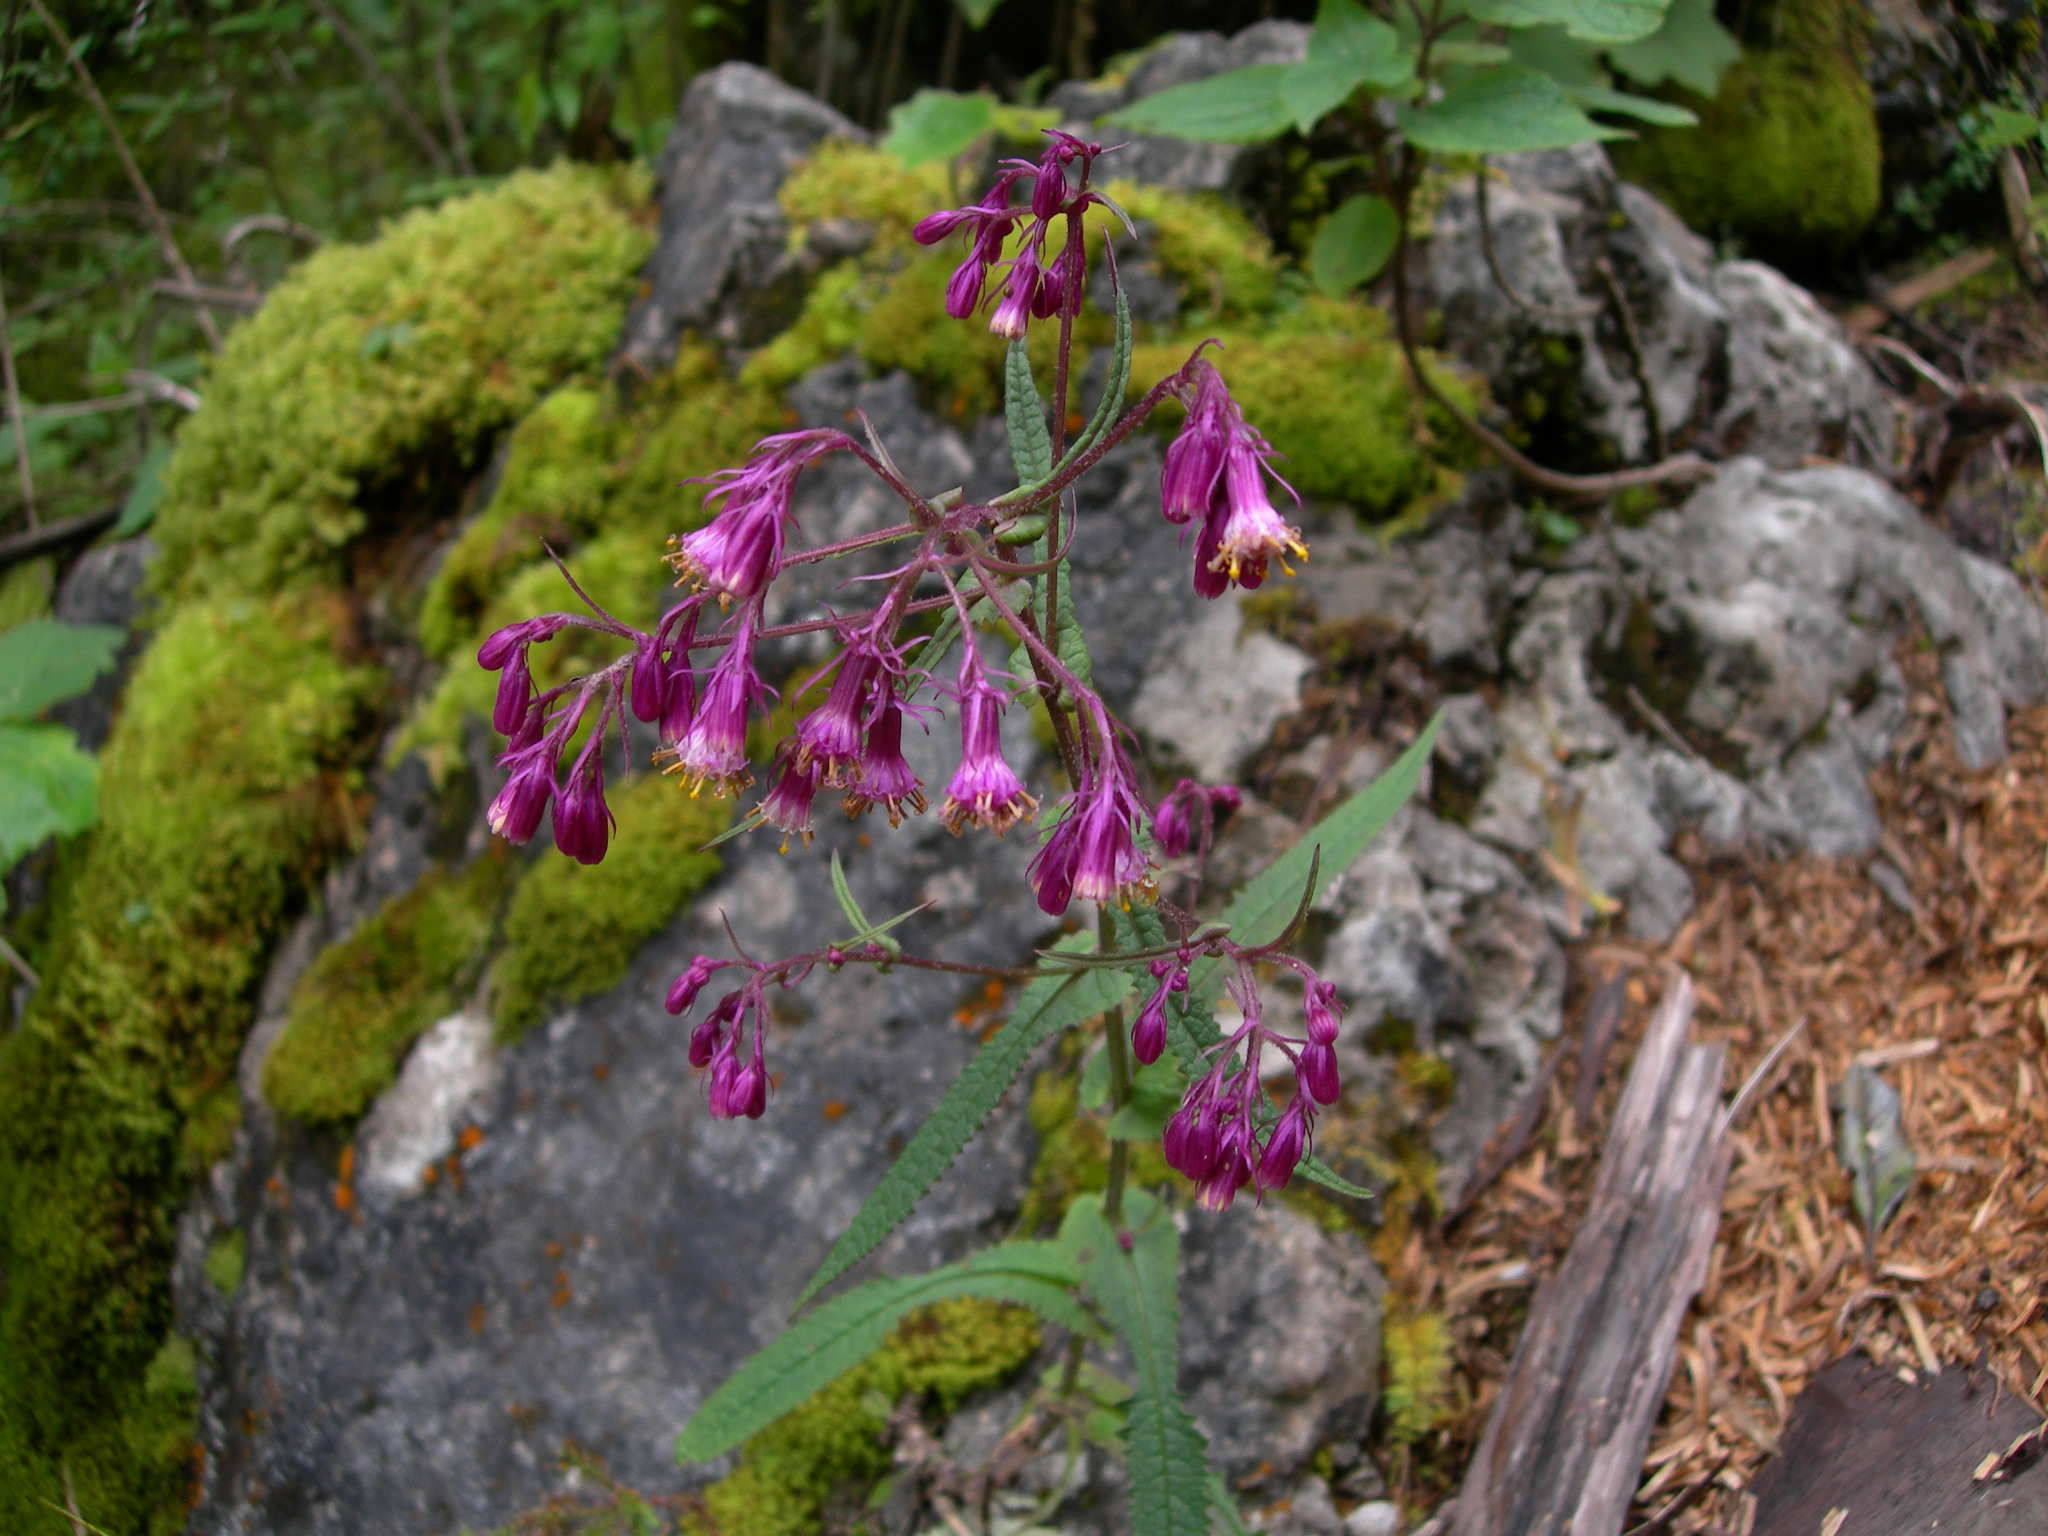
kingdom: Plantae
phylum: Tracheophyta
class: Magnoliopsida
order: Asterales
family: Asteraceae
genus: Senecio
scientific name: Senecio callosus
